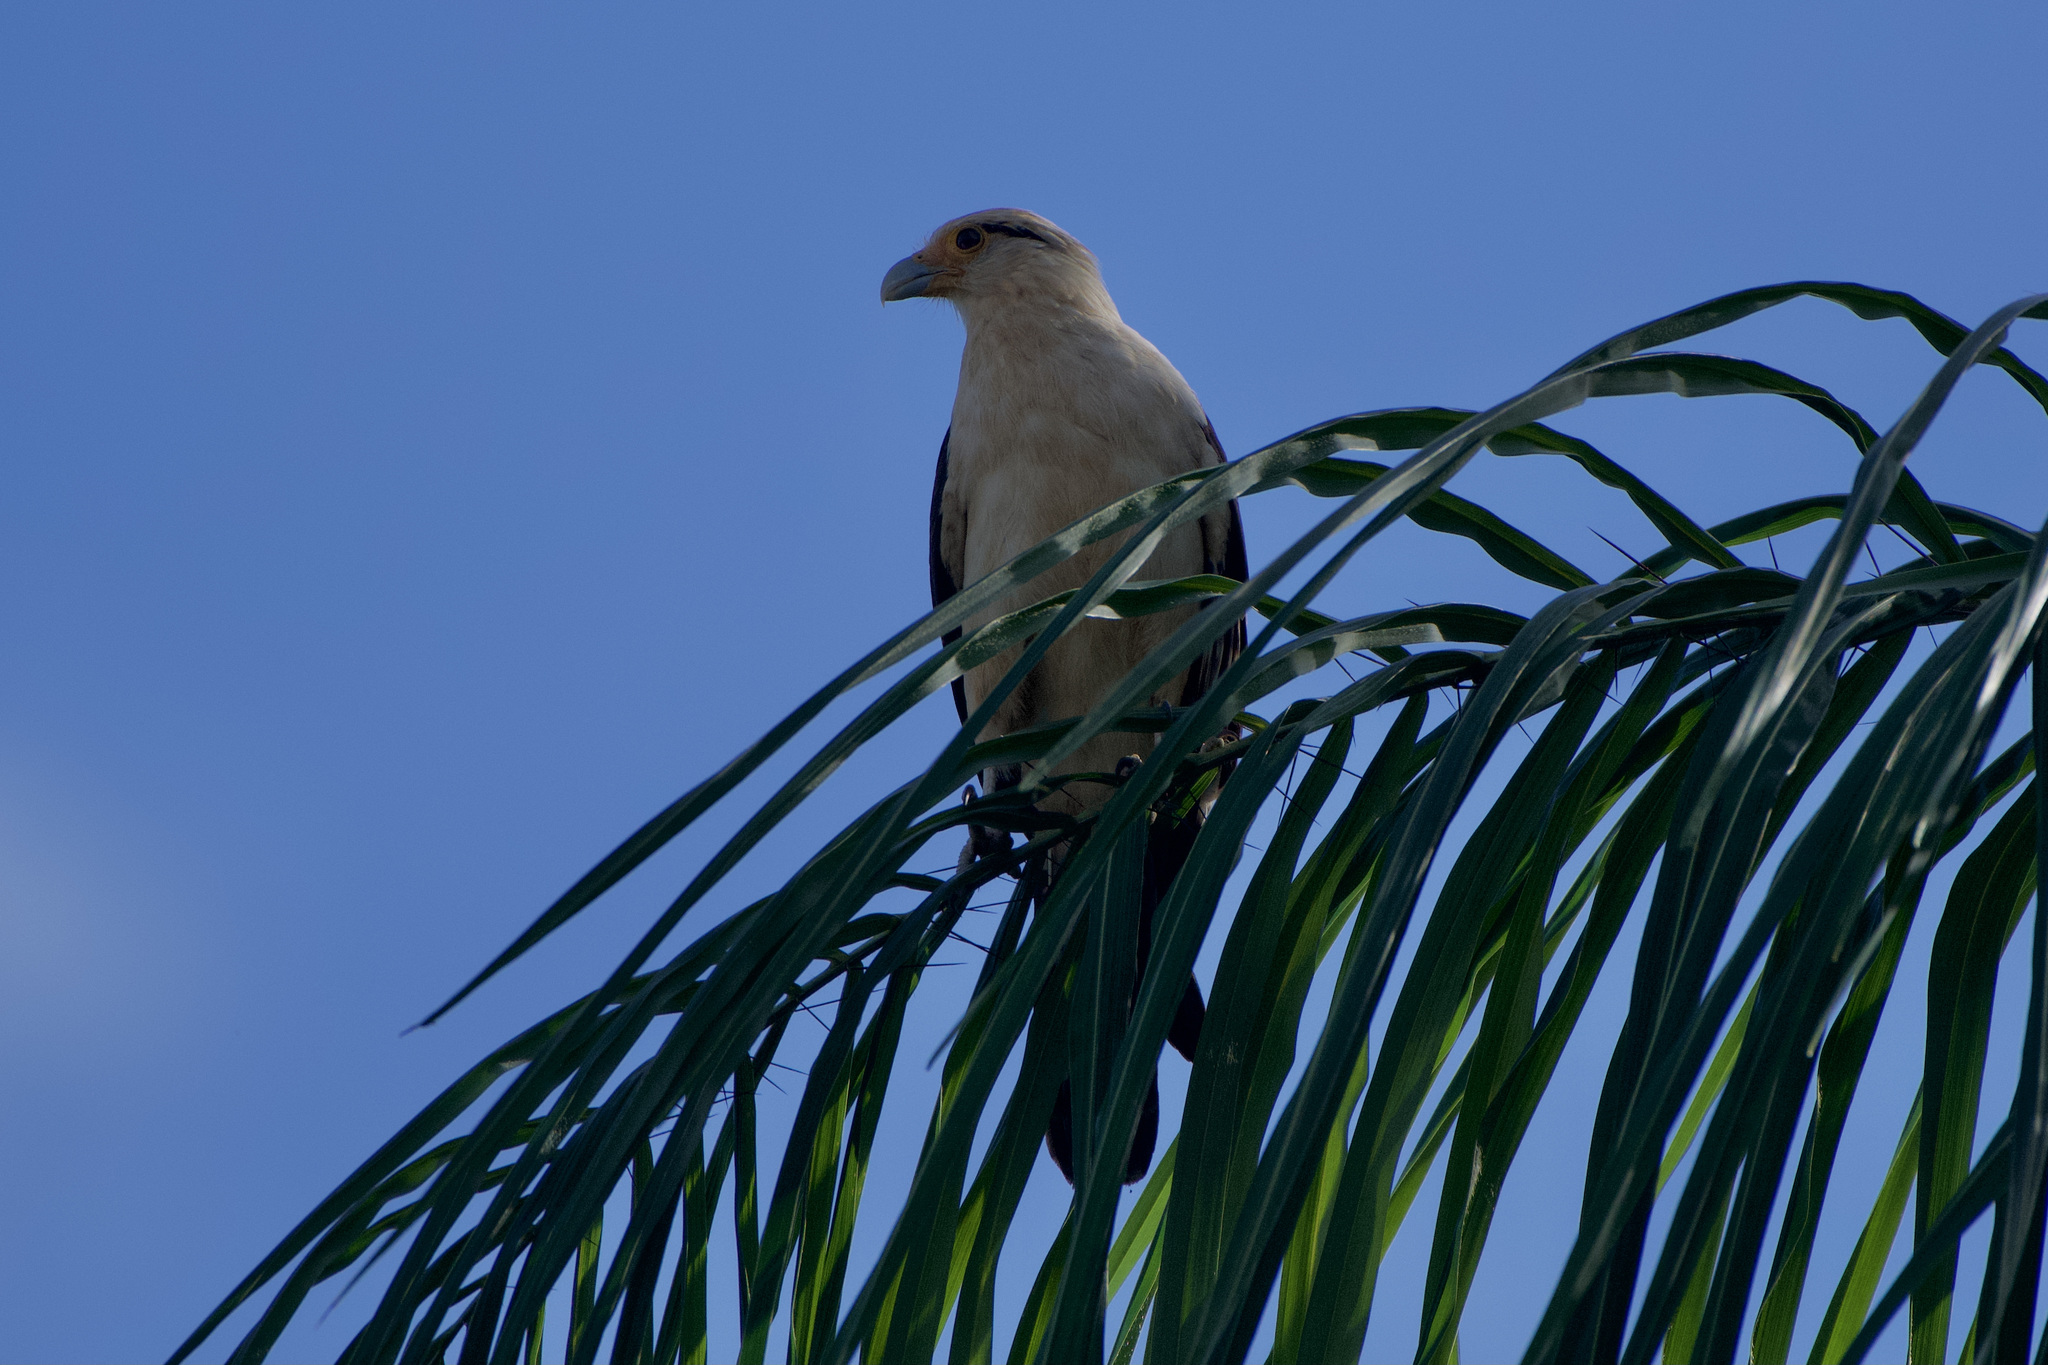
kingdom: Animalia
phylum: Chordata
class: Aves
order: Falconiformes
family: Falconidae
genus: Daptrius
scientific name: Daptrius
